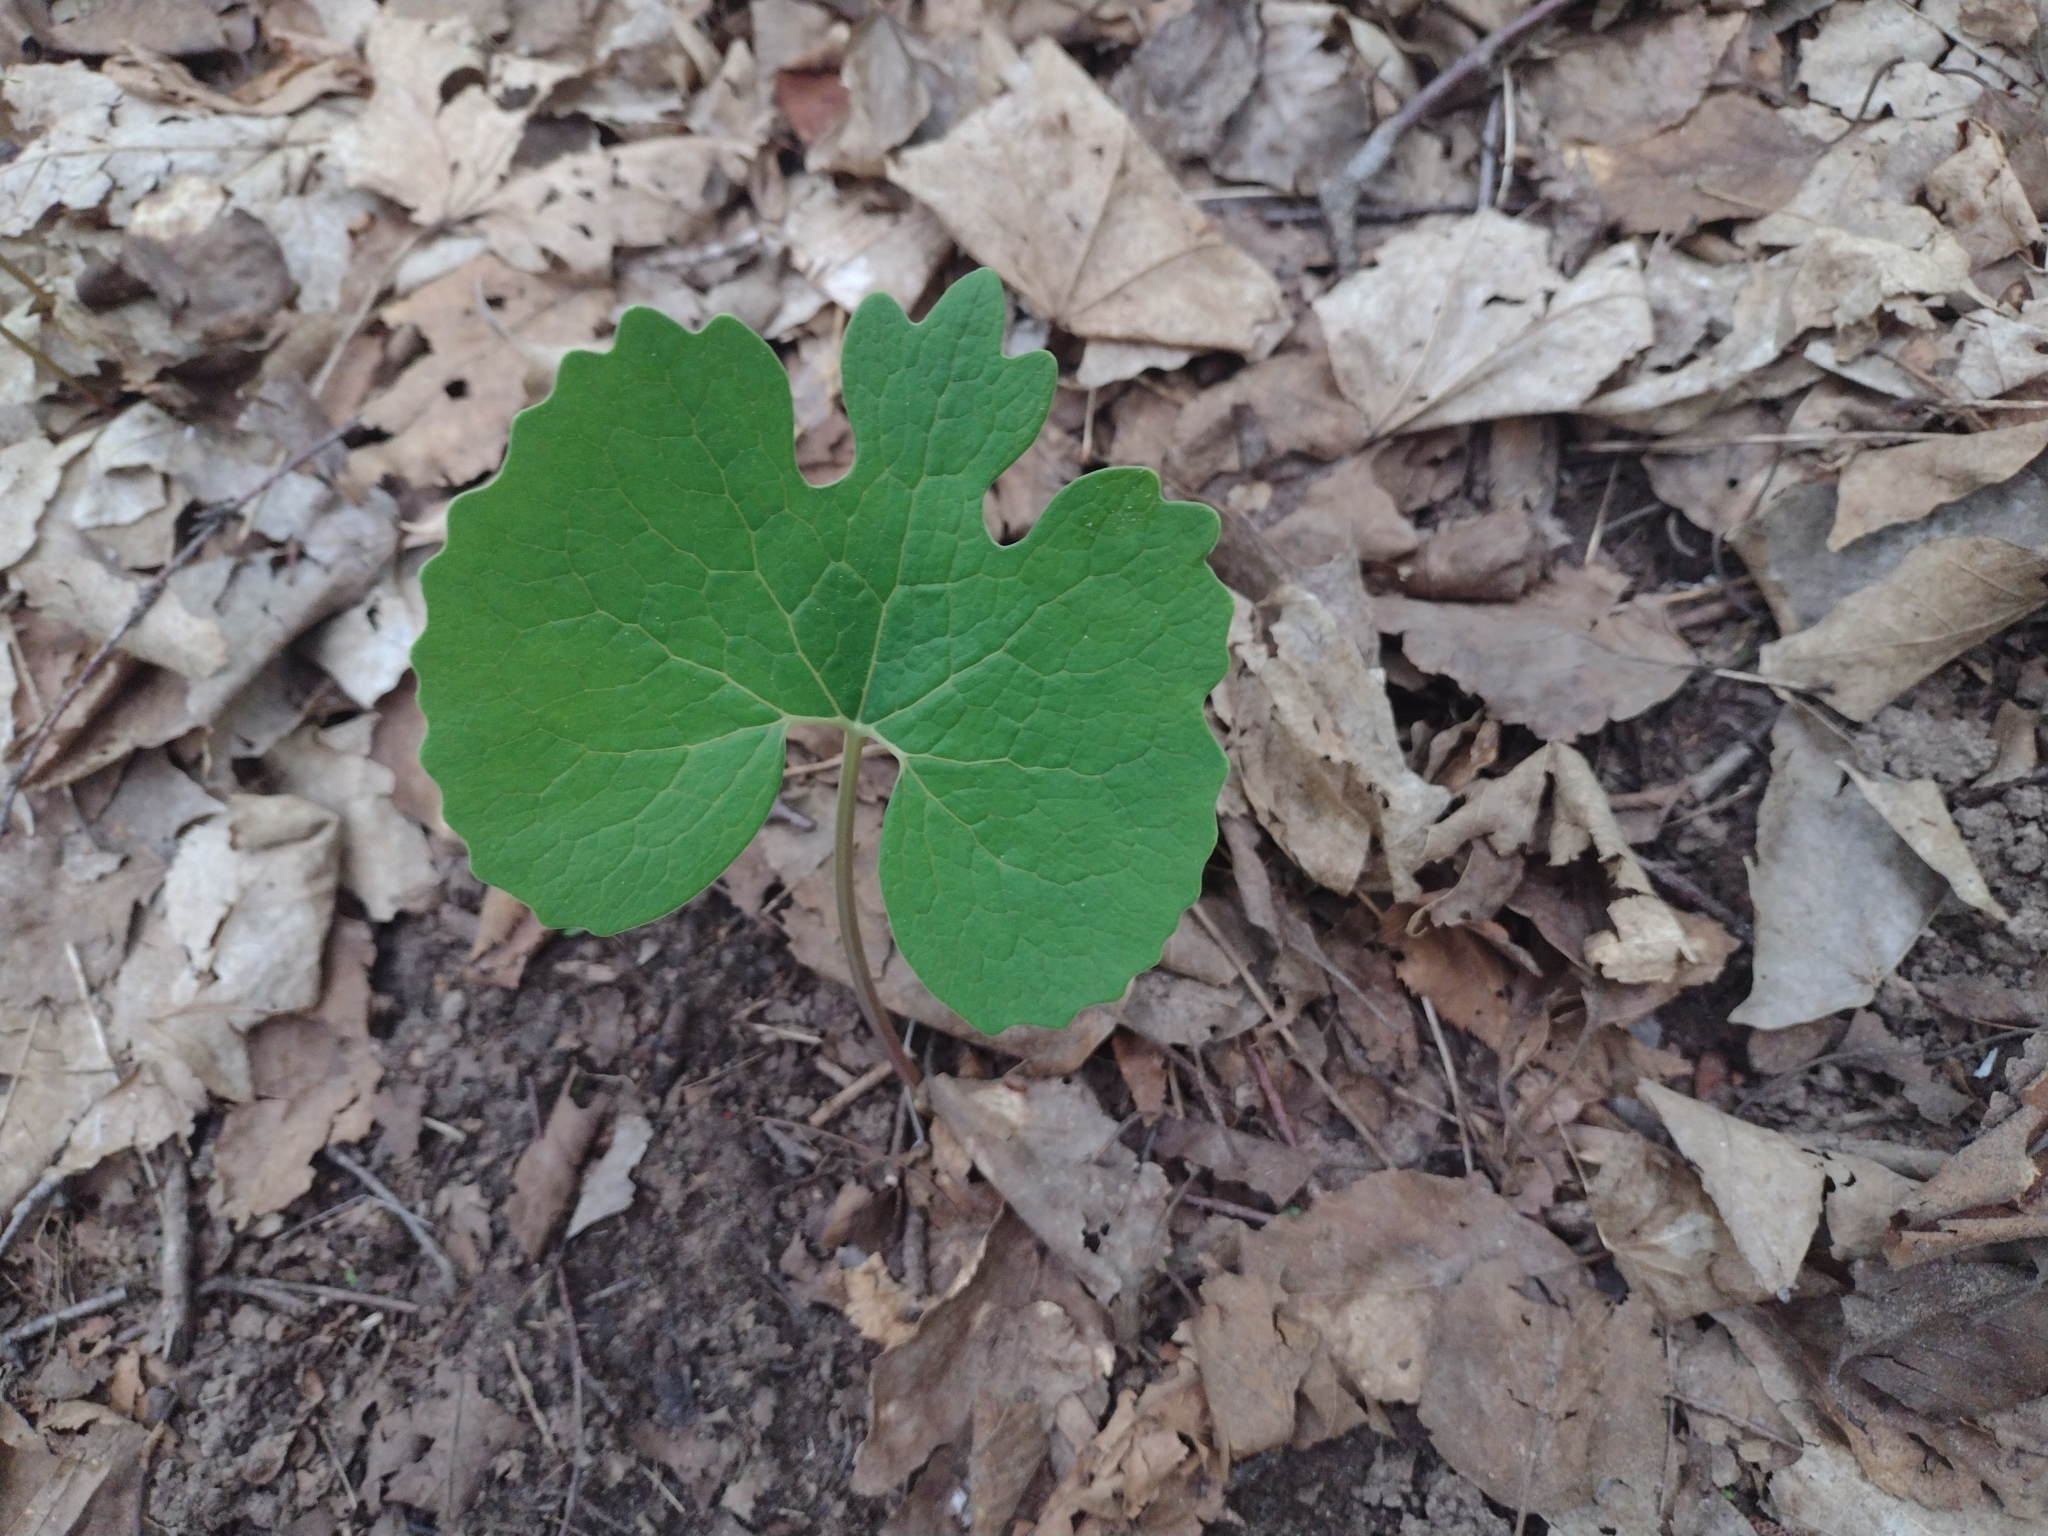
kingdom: Plantae
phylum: Tracheophyta
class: Magnoliopsida
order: Ranunculales
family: Papaveraceae
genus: Sanguinaria
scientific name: Sanguinaria canadensis
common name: Bloodroot
